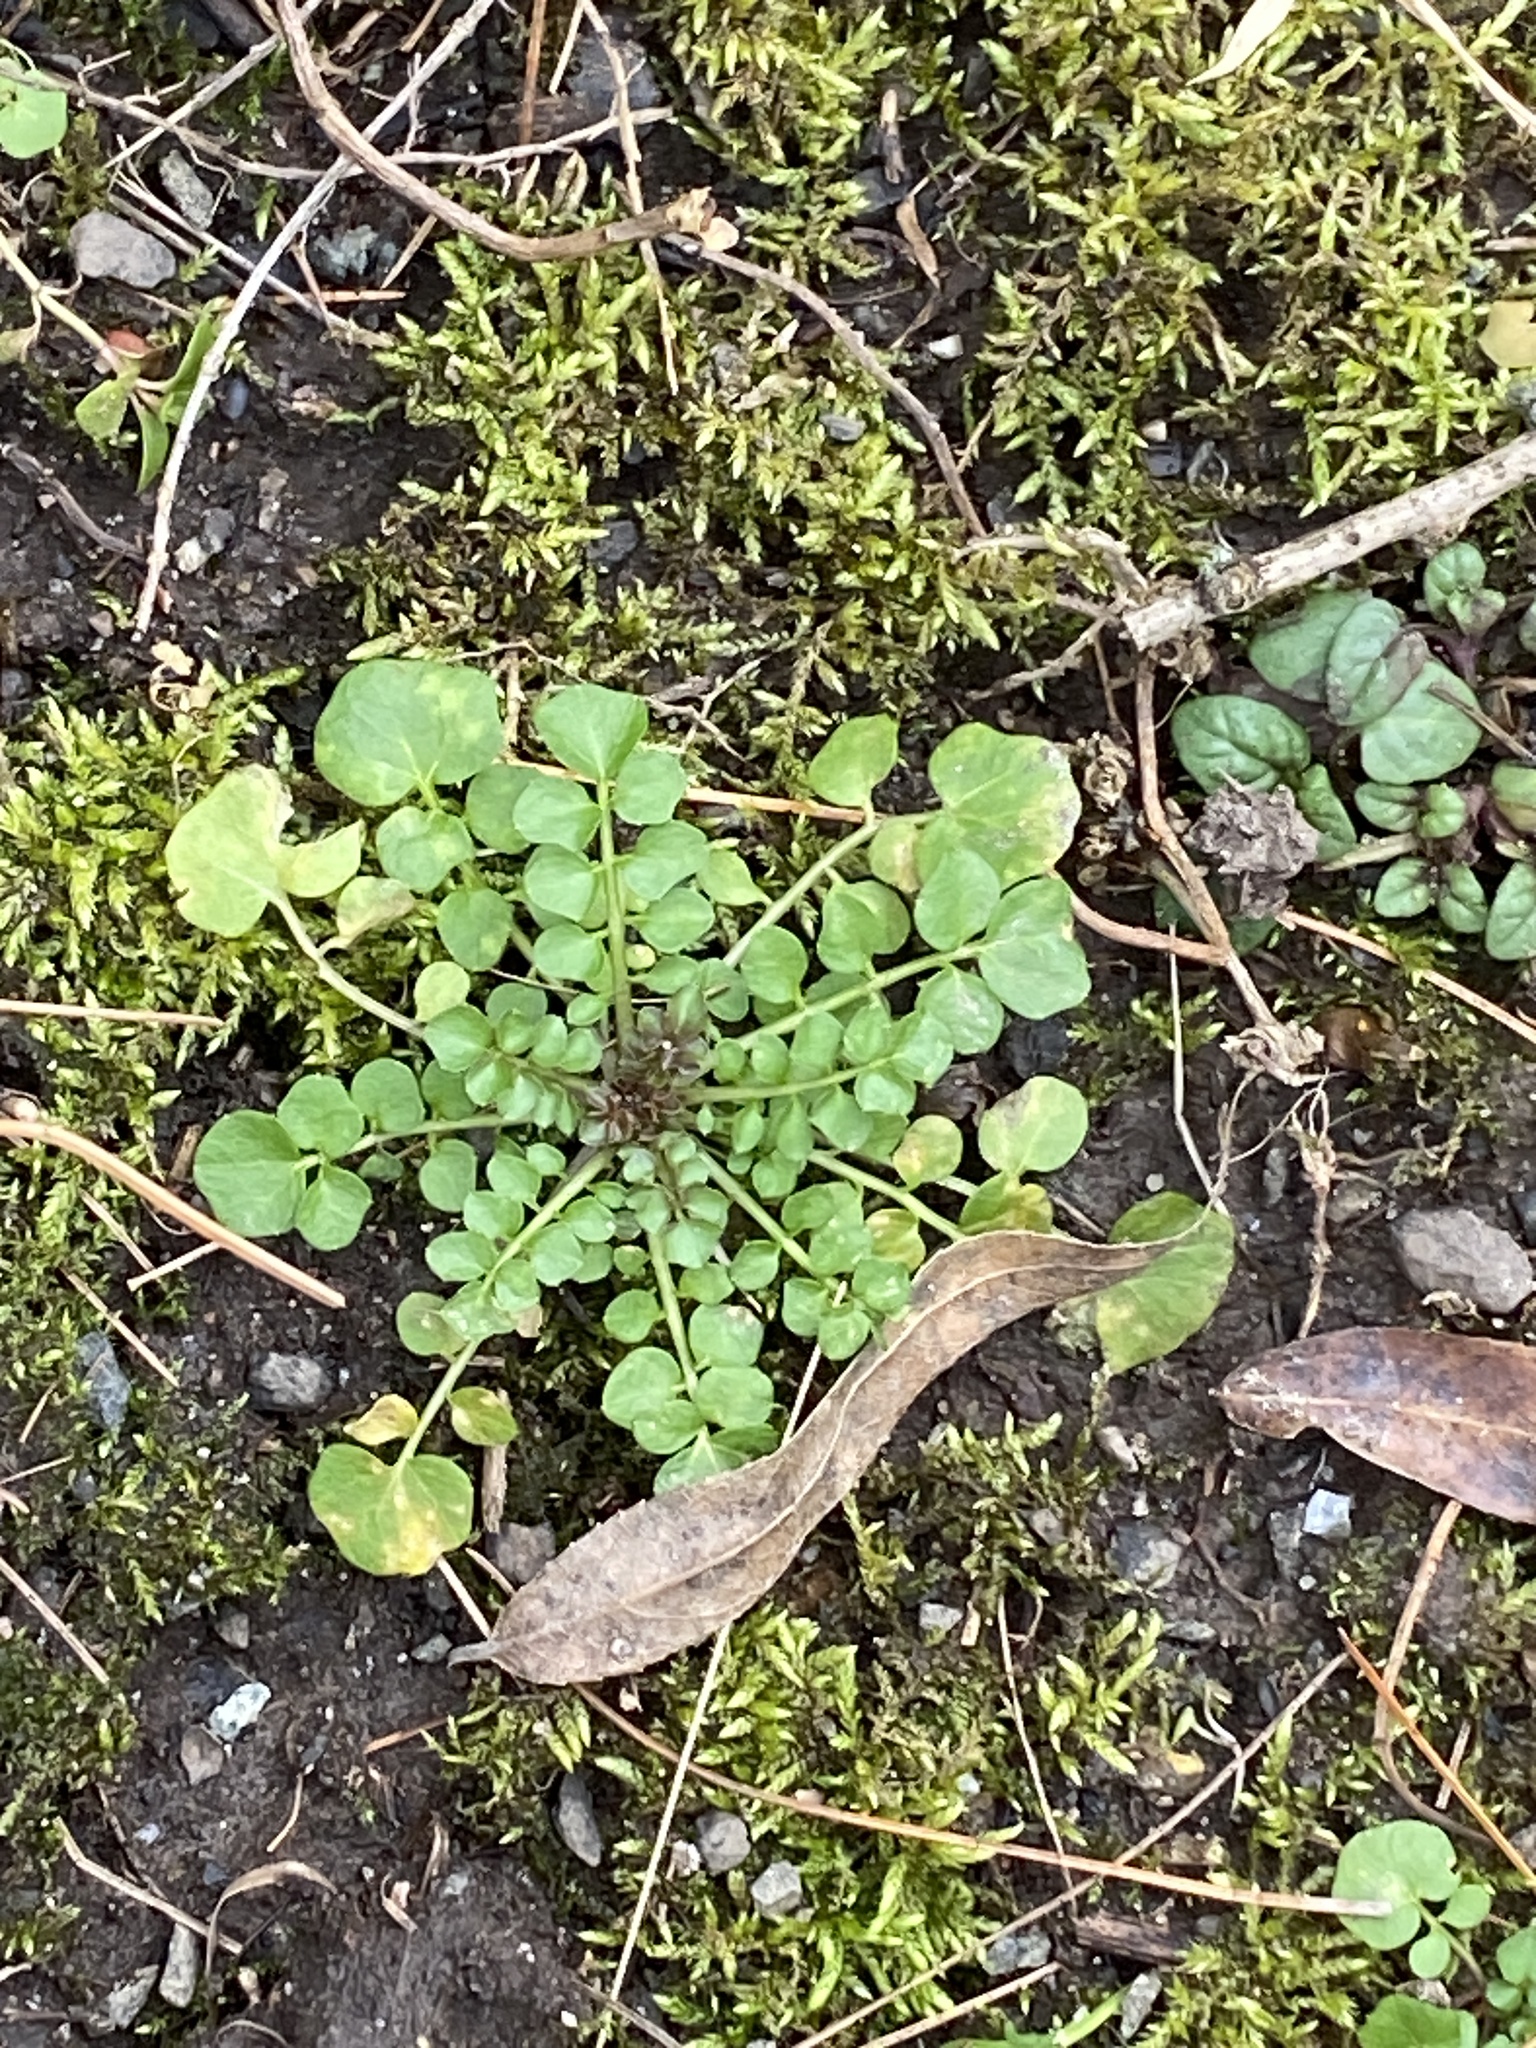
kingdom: Plantae
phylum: Tracheophyta
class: Magnoliopsida
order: Brassicales
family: Brassicaceae
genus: Cardamine
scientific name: Cardamine hirsuta
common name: Hairy bittercress
